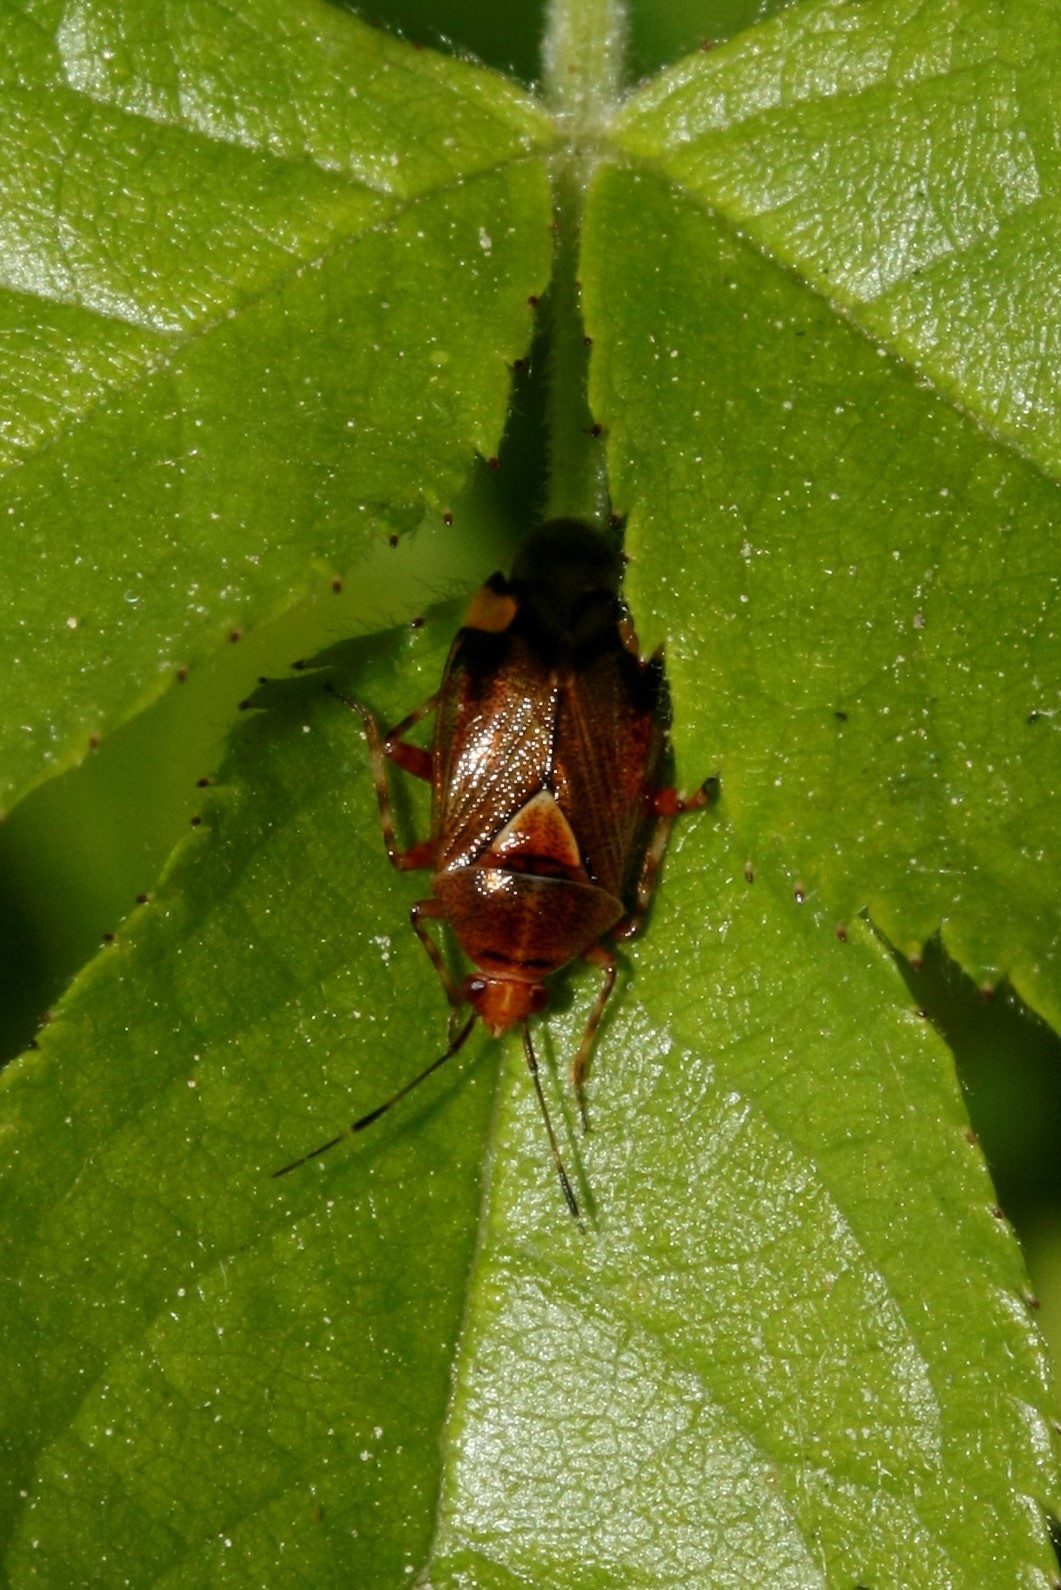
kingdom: Animalia
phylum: Arthropoda
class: Insecta
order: Hemiptera
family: Miridae
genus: Deraeocoris
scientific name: Deraeocoris flavilinea
